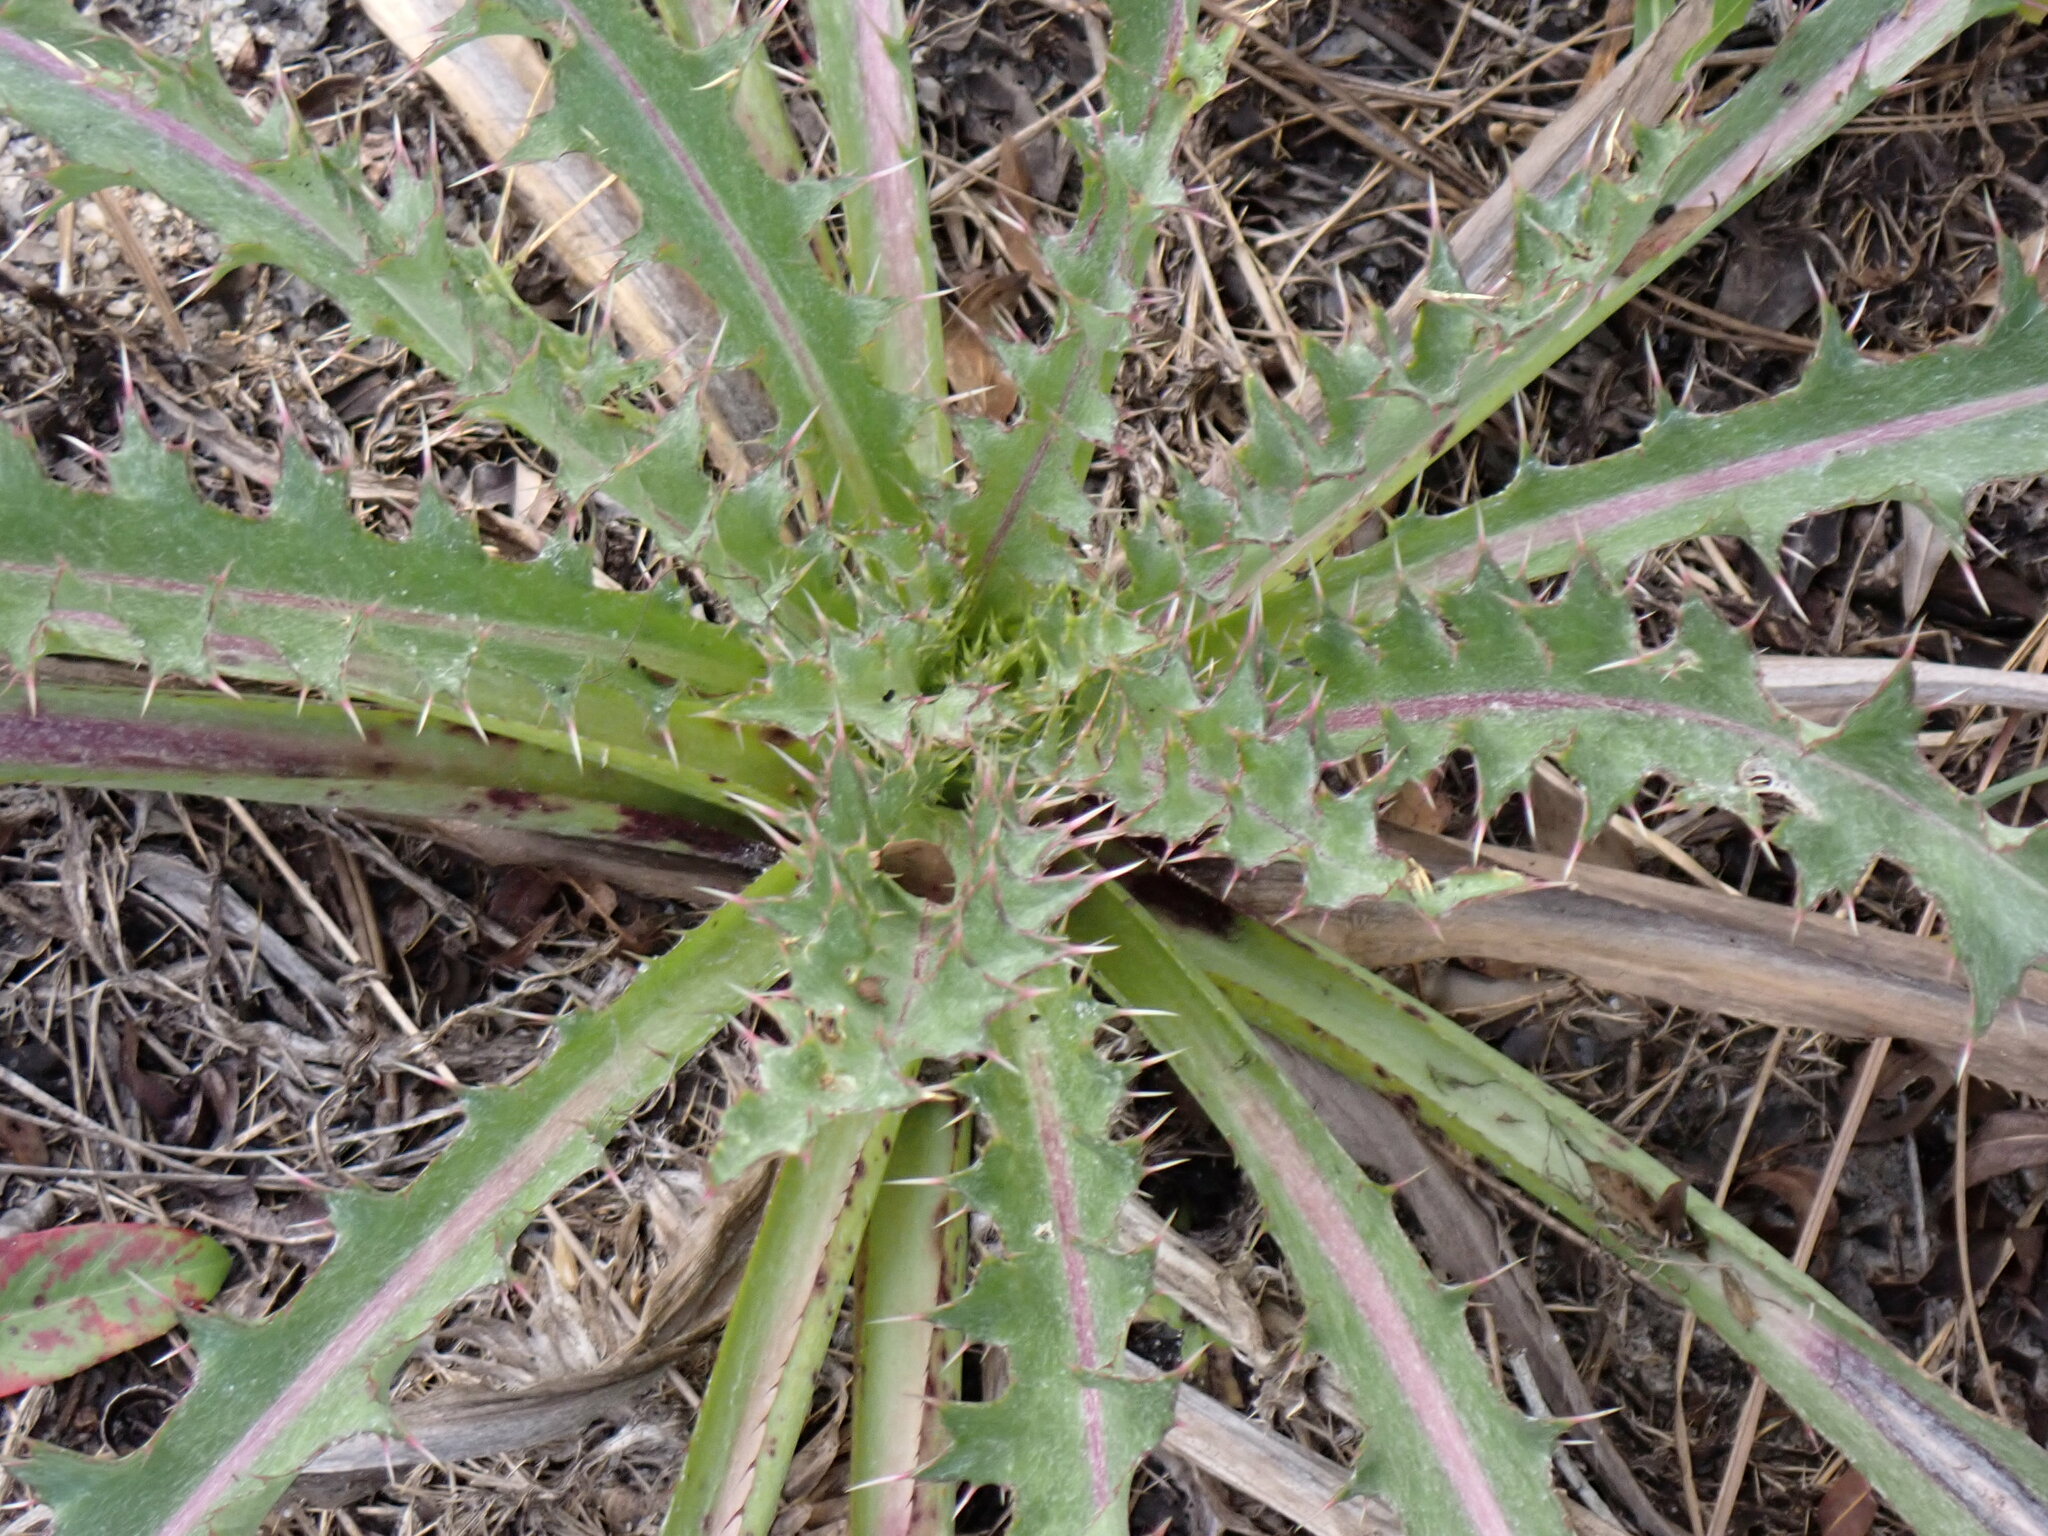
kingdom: Plantae
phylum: Tracheophyta
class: Magnoliopsida
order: Asterales
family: Asteraceae
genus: Cirsium
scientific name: Cirsium horridulum
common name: Bristly thistle
